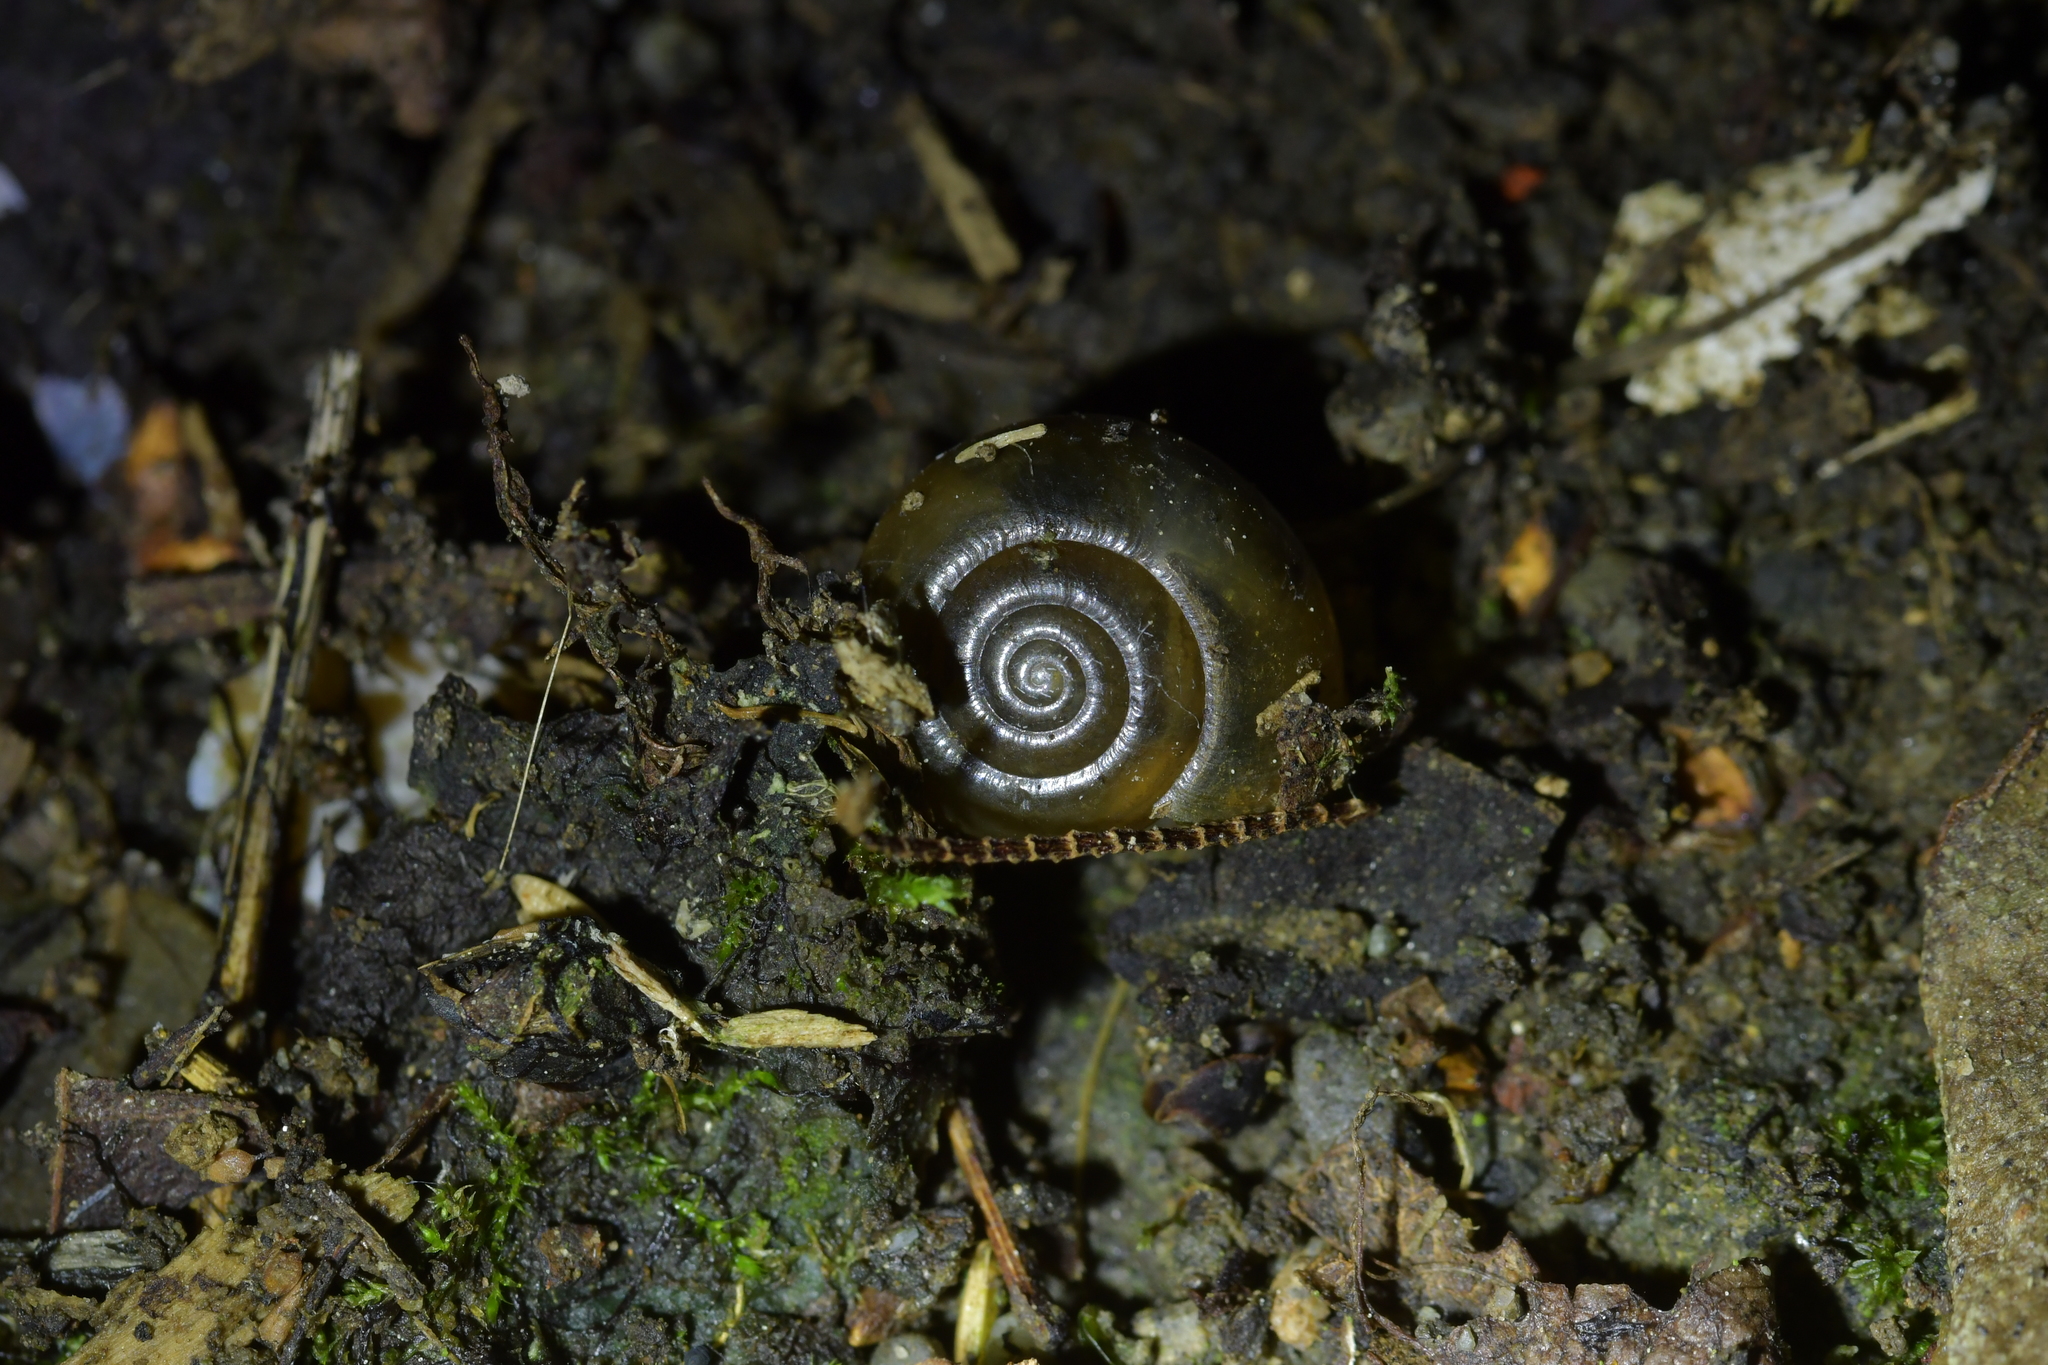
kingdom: Animalia
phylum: Mollusca
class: Gastropoda
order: Stylommatophora
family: Oxychilidae
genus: Oxychilus
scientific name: Oxychilus draparnaudi
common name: Draparnaud's glass snail
